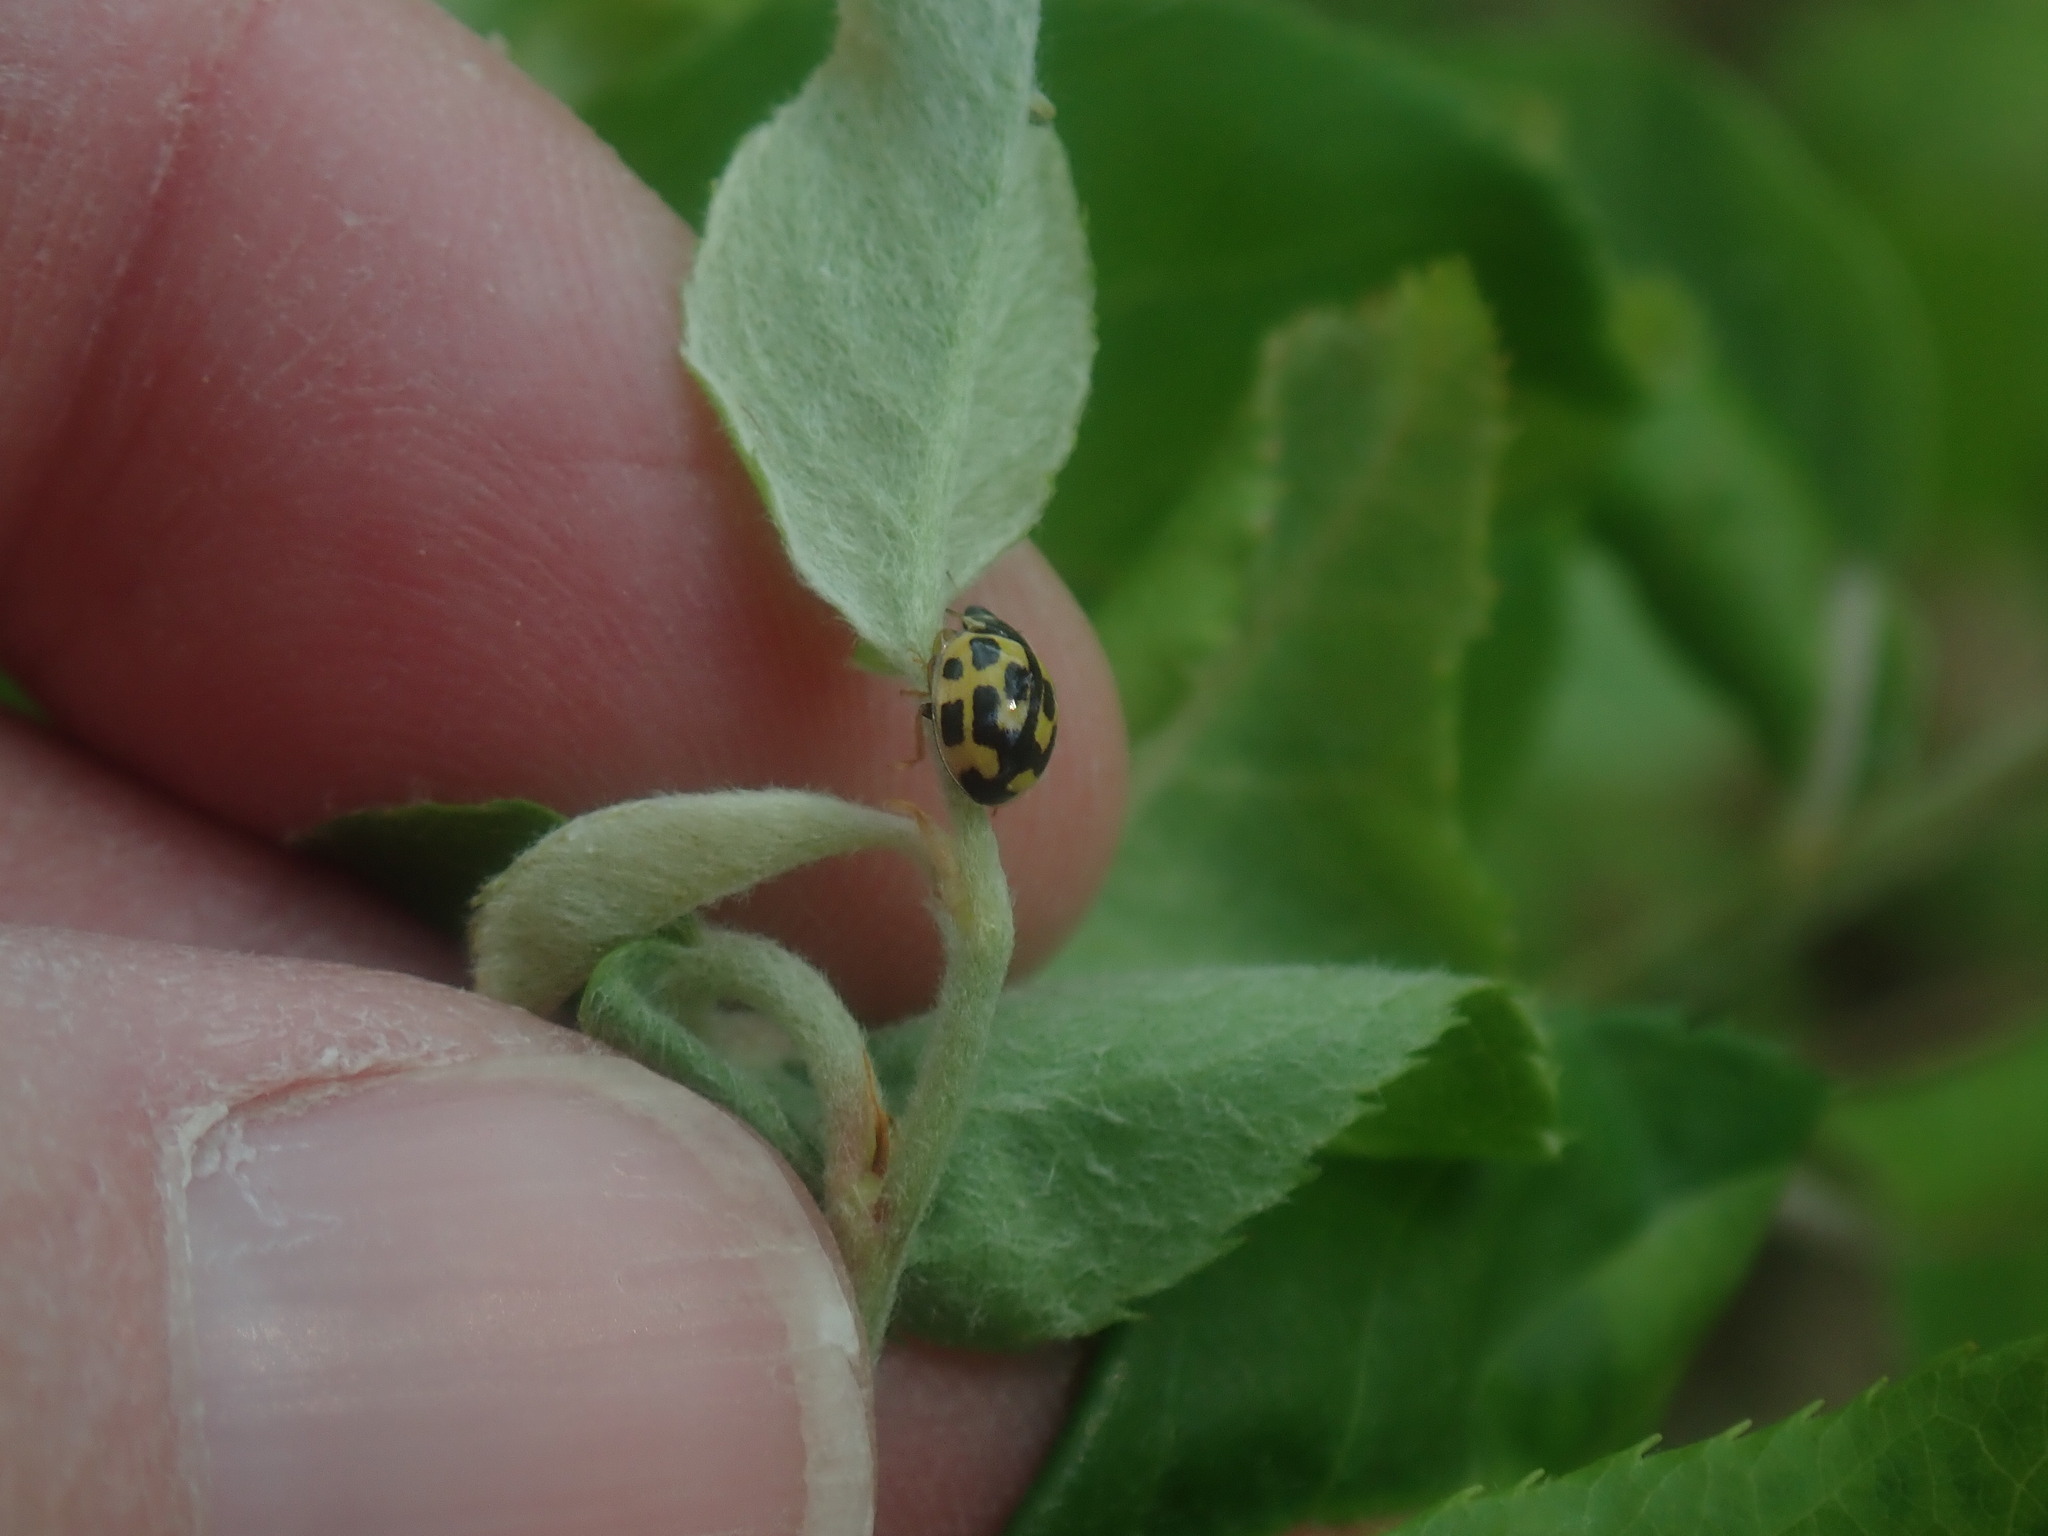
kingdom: Animalia
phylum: Arthropoda
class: Insecta
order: Coleoptera
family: Coccinellidae
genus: Propylaea
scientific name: Propylaea quatuordecimpunctata
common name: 14-spotted ladybird beetle
